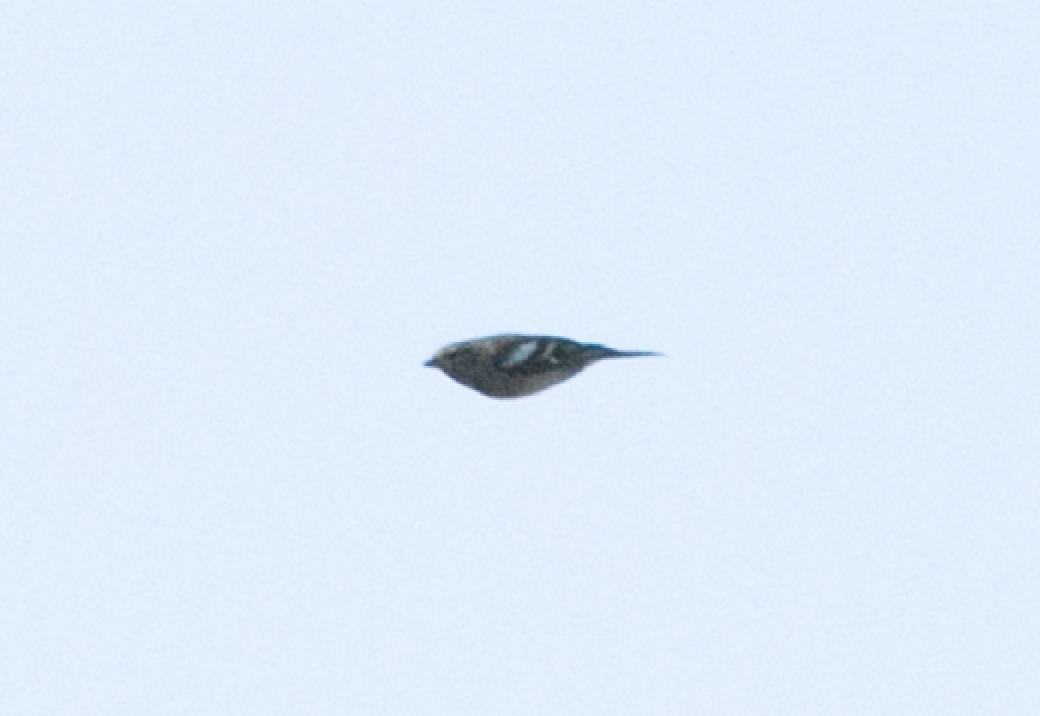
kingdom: Animalia
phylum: Chordata
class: Aves
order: Passeriformes
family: Fringillidae
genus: Fringilla
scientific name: Fringilla coelebs
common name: Common chaffinch
